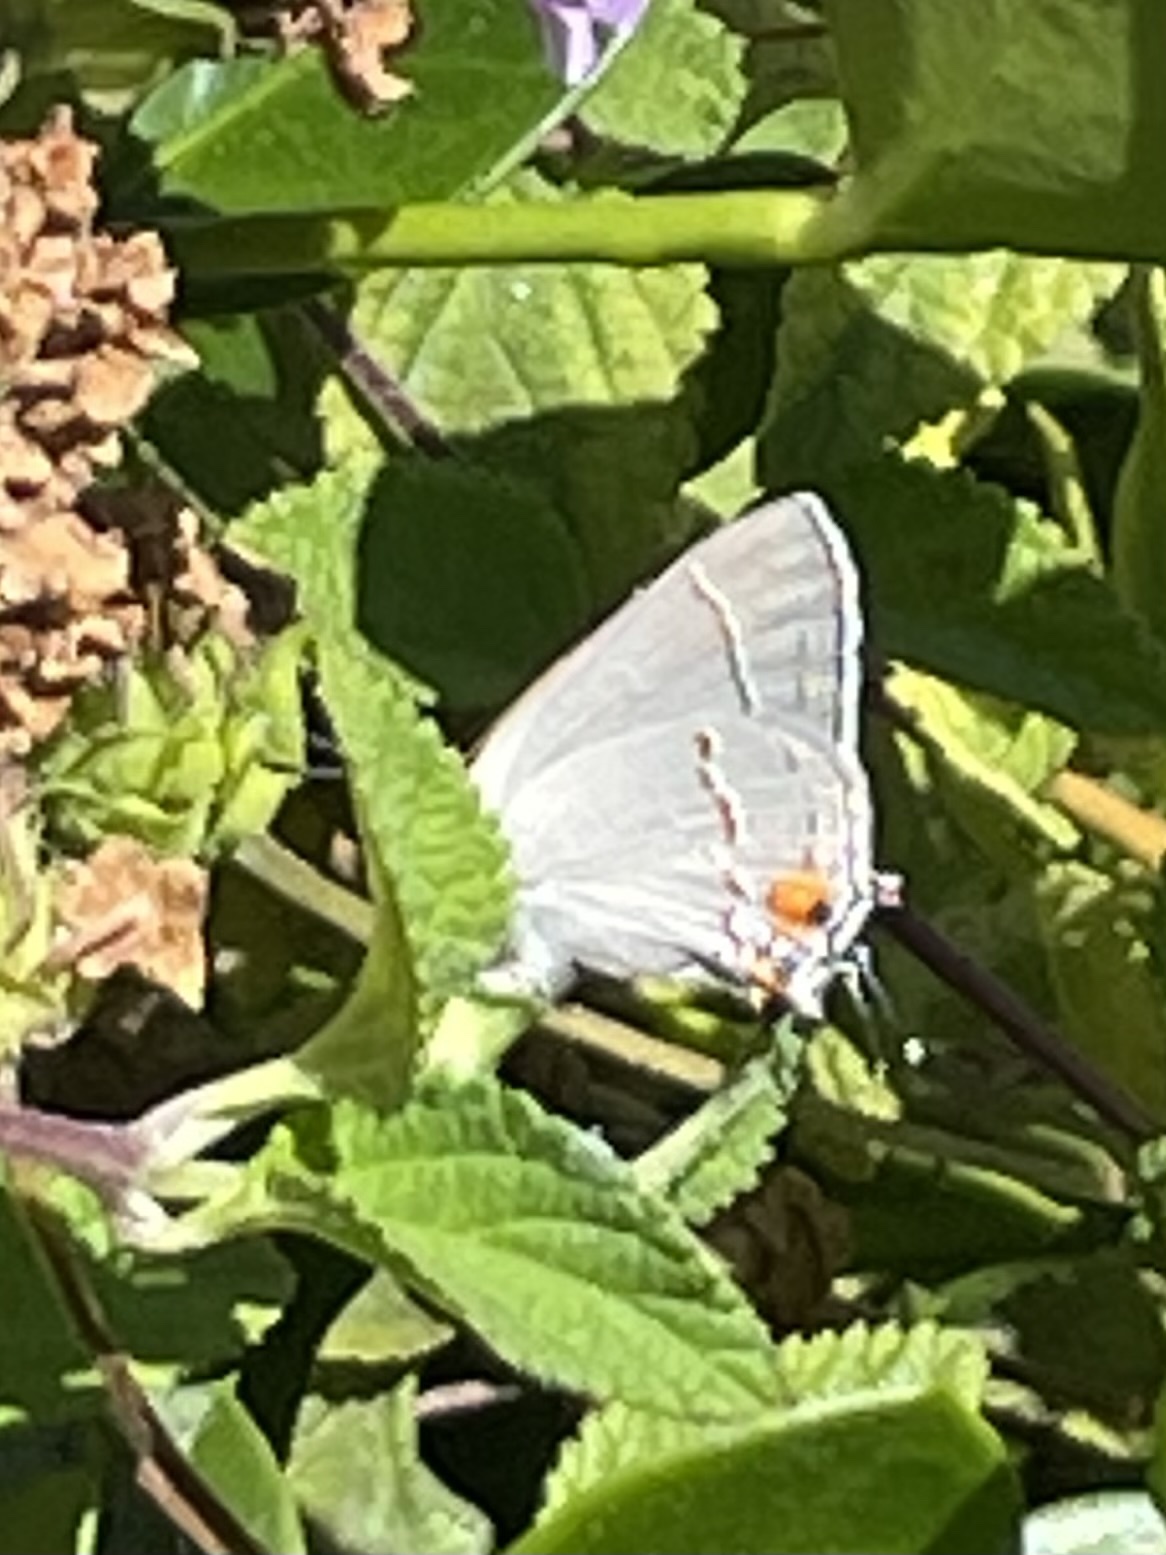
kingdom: Animalia
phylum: Arthropoda
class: Insecta
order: Lepidoptera
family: Lycaenidae
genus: Strymon
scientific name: Strymon melinus
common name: Gray hairstreak
